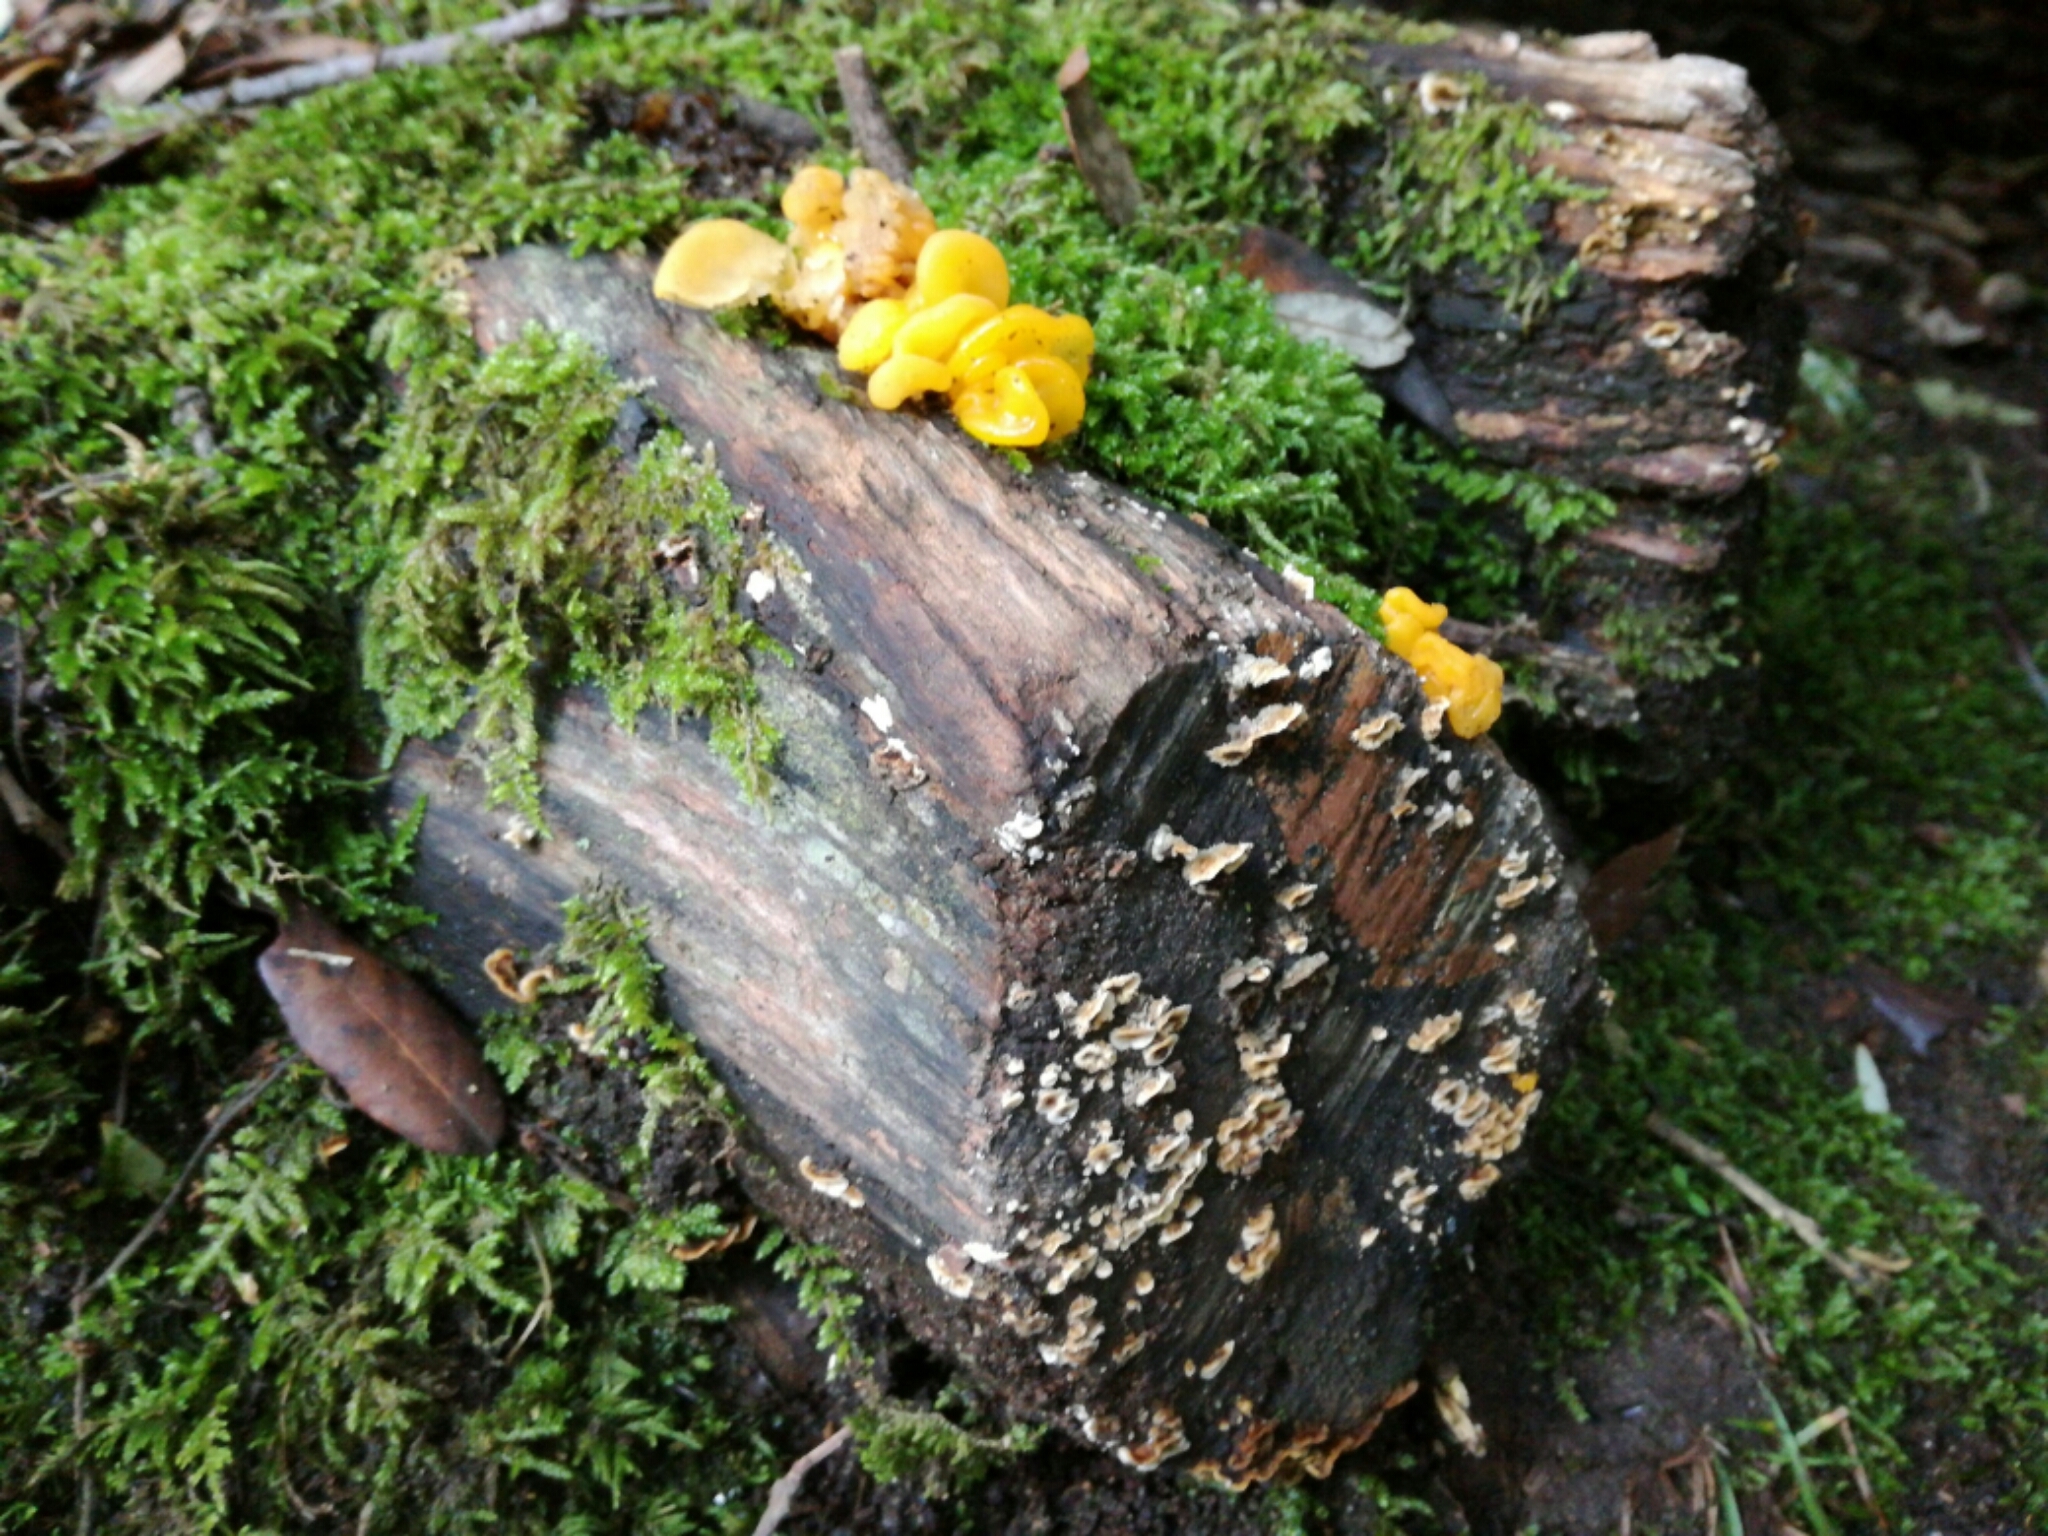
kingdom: Fungi
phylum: Basidiomycota
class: Tremellomycetes
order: Tremellales
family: Naemateliaceae
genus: Naematelia
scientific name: Naematelia aurantia
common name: Golden ear
